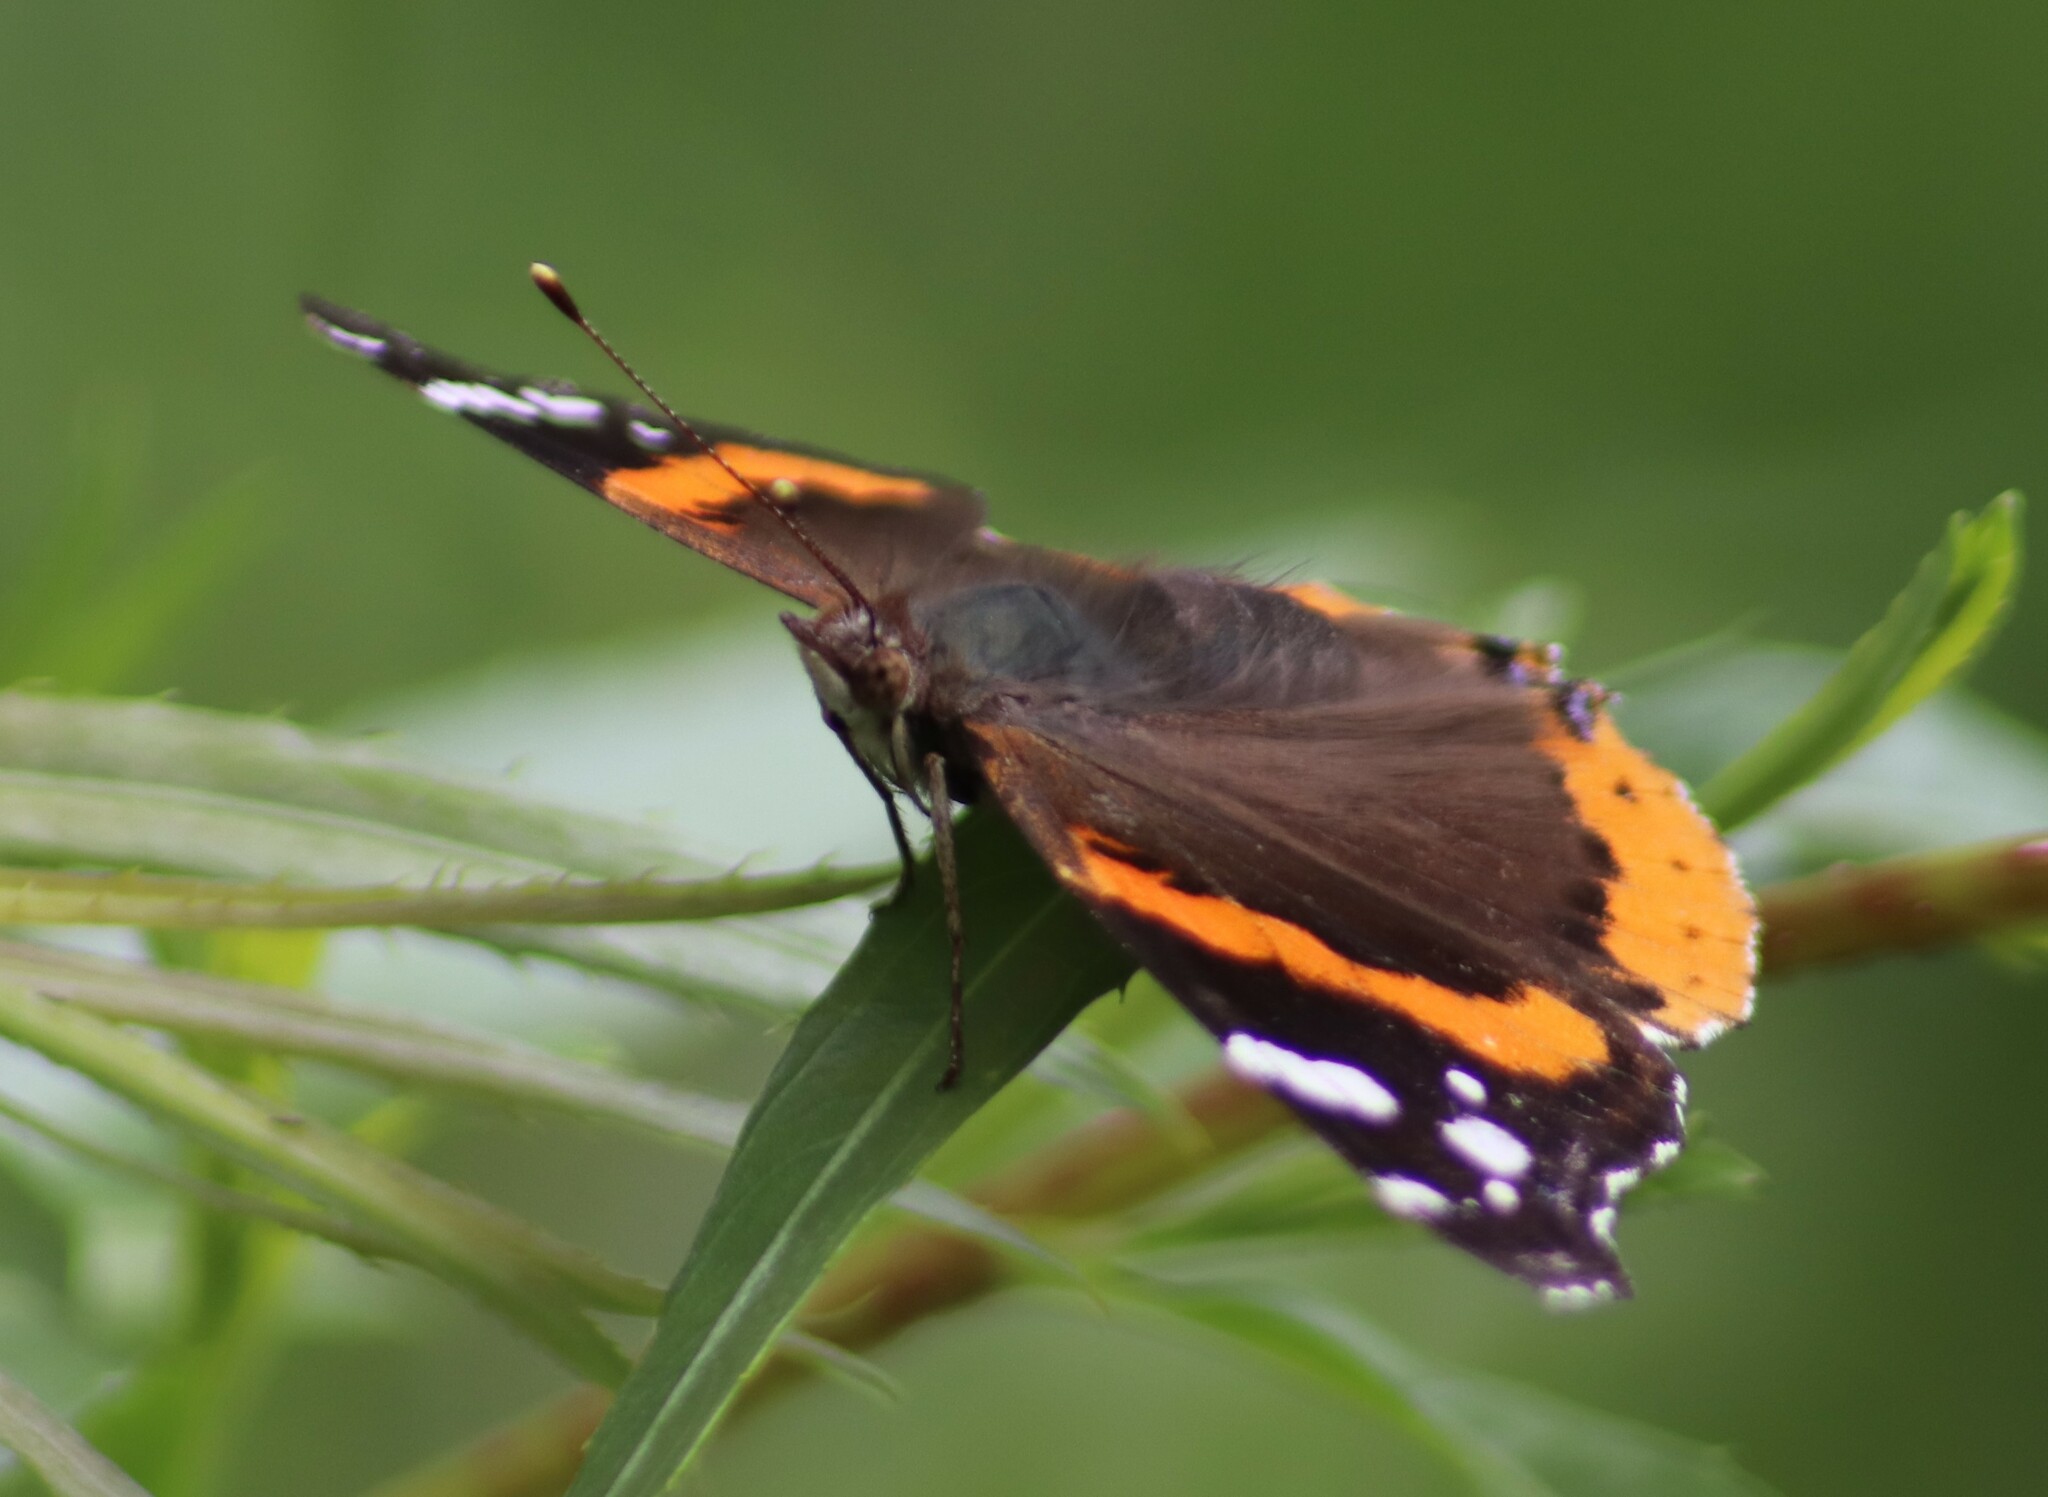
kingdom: Animalia
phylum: Arthropoda
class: Insecta
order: Lepidoptera
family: Nymphalidae
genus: Vanessa
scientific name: Vanessa atalanta
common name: Red admiral
